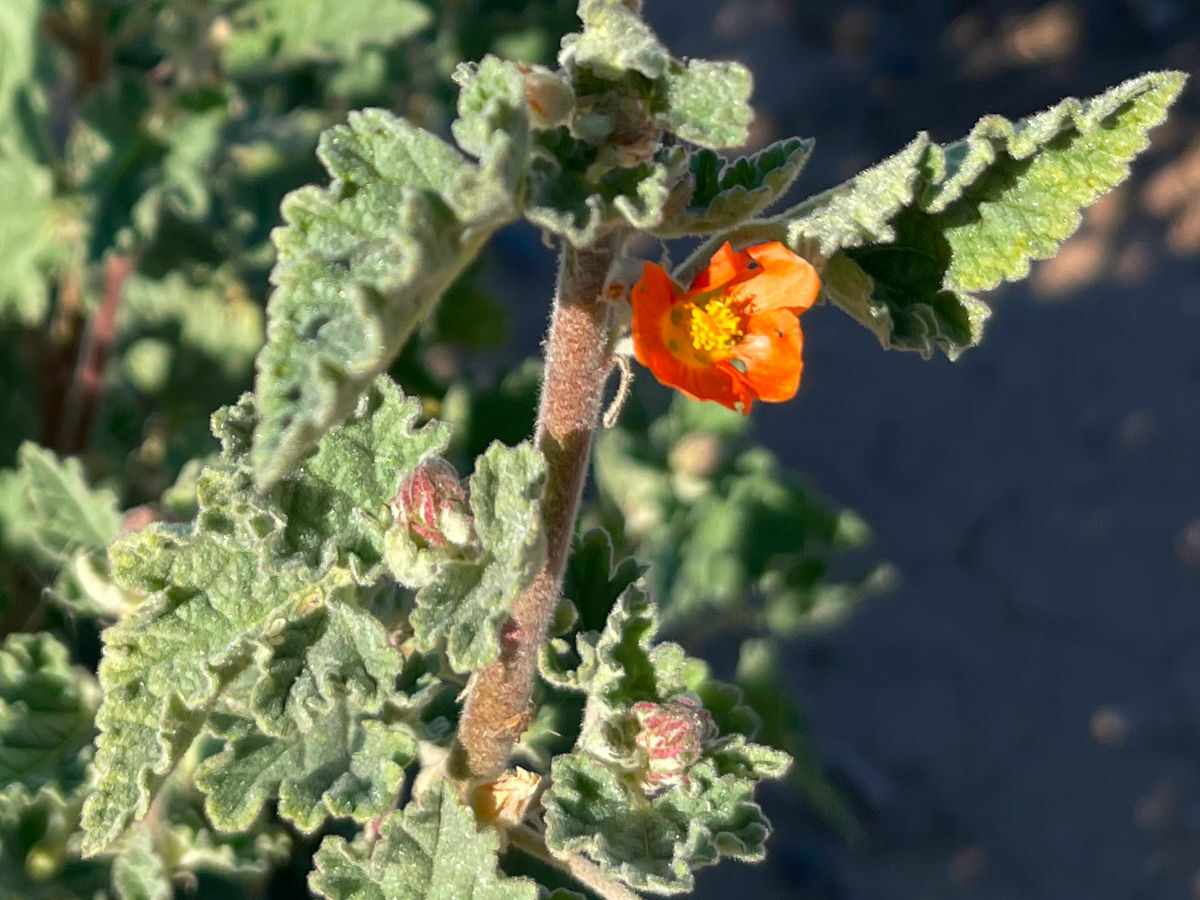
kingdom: Plantae
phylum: Tracheophyta
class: Magnoliopsida
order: Malvales
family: Malvaceae
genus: Sphaeralcea
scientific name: Sphaeralcea ambigua
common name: Apricot globe-mallow
